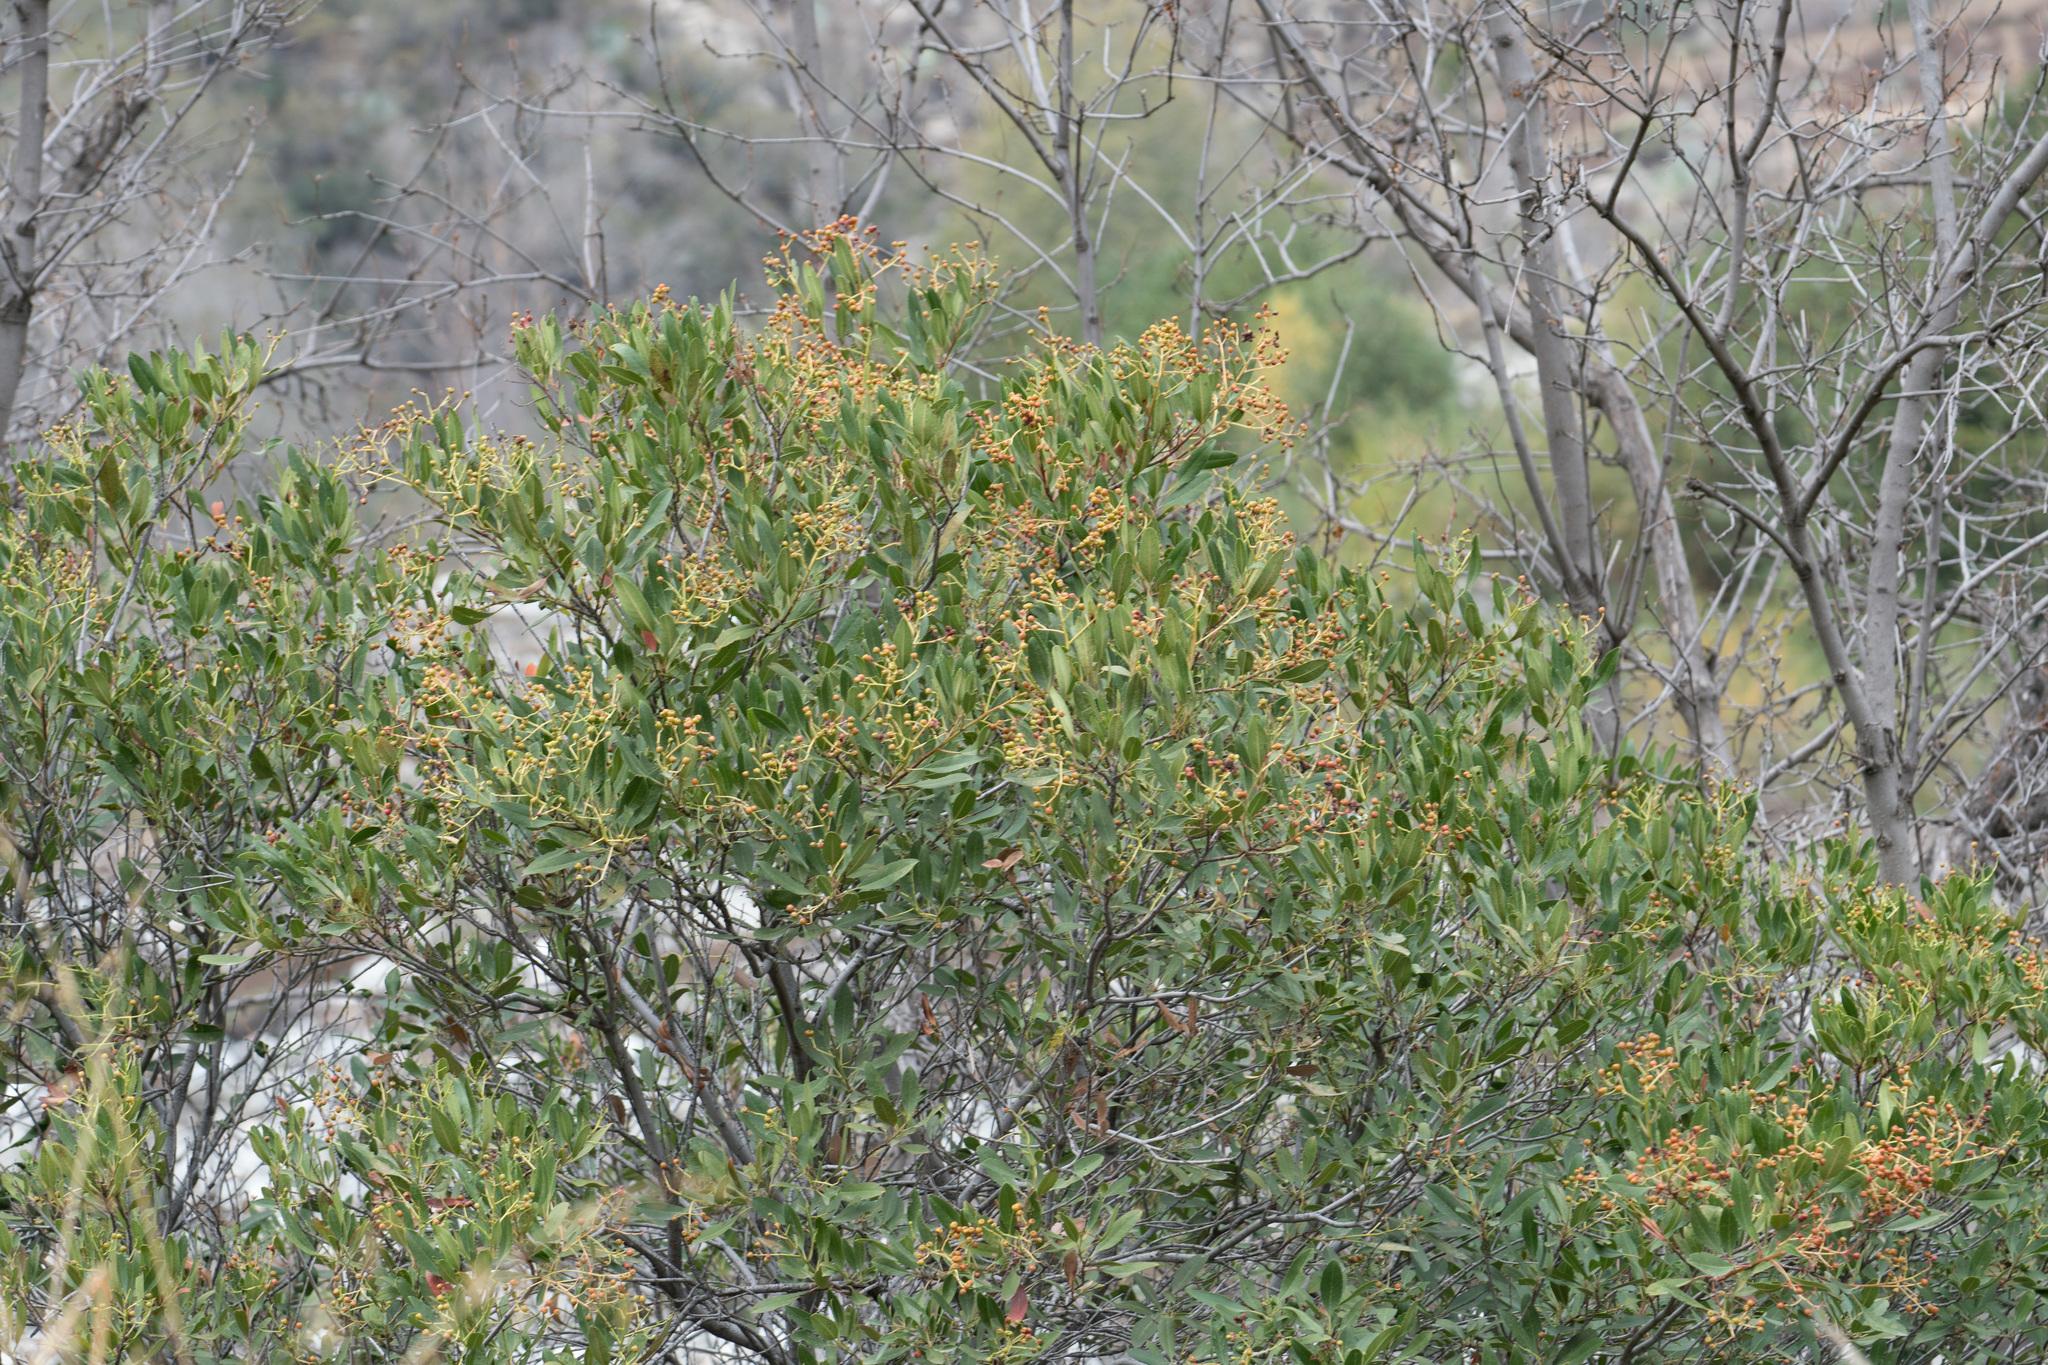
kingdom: Plantae
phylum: Tracheophyta
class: Magnoliopsida
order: Rosales
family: Rosaceae
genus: Heteromeles
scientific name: Heteromeles arbutifolia
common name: California-holly
